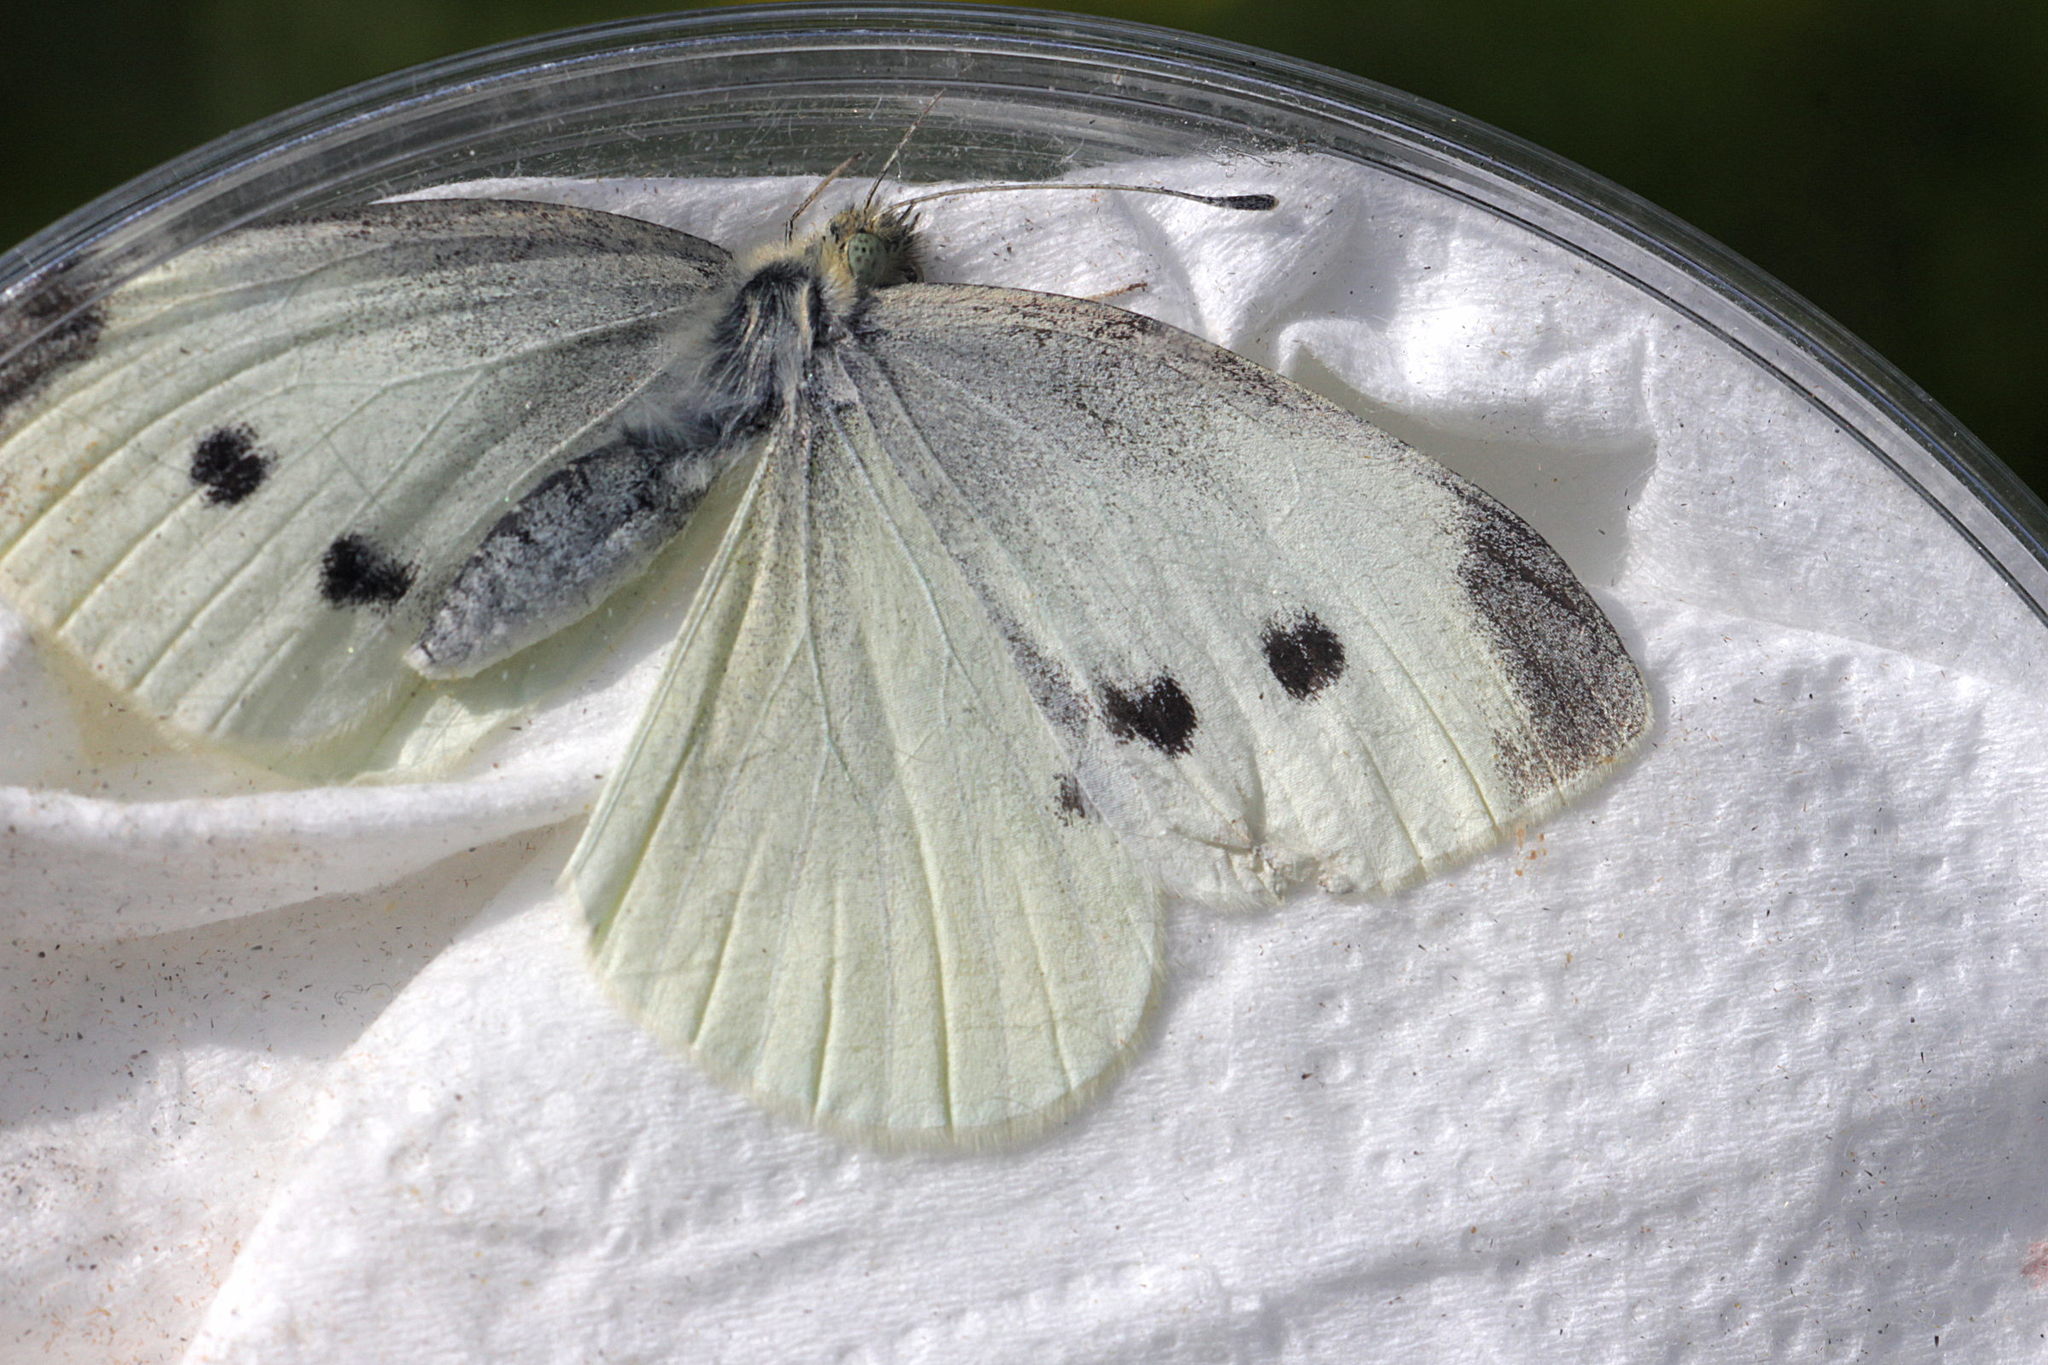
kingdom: Animalia
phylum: Arthropoda
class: Insecta
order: Lepidoptera
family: Pieridae
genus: Pieris
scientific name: Pieris rapae
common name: Small white
